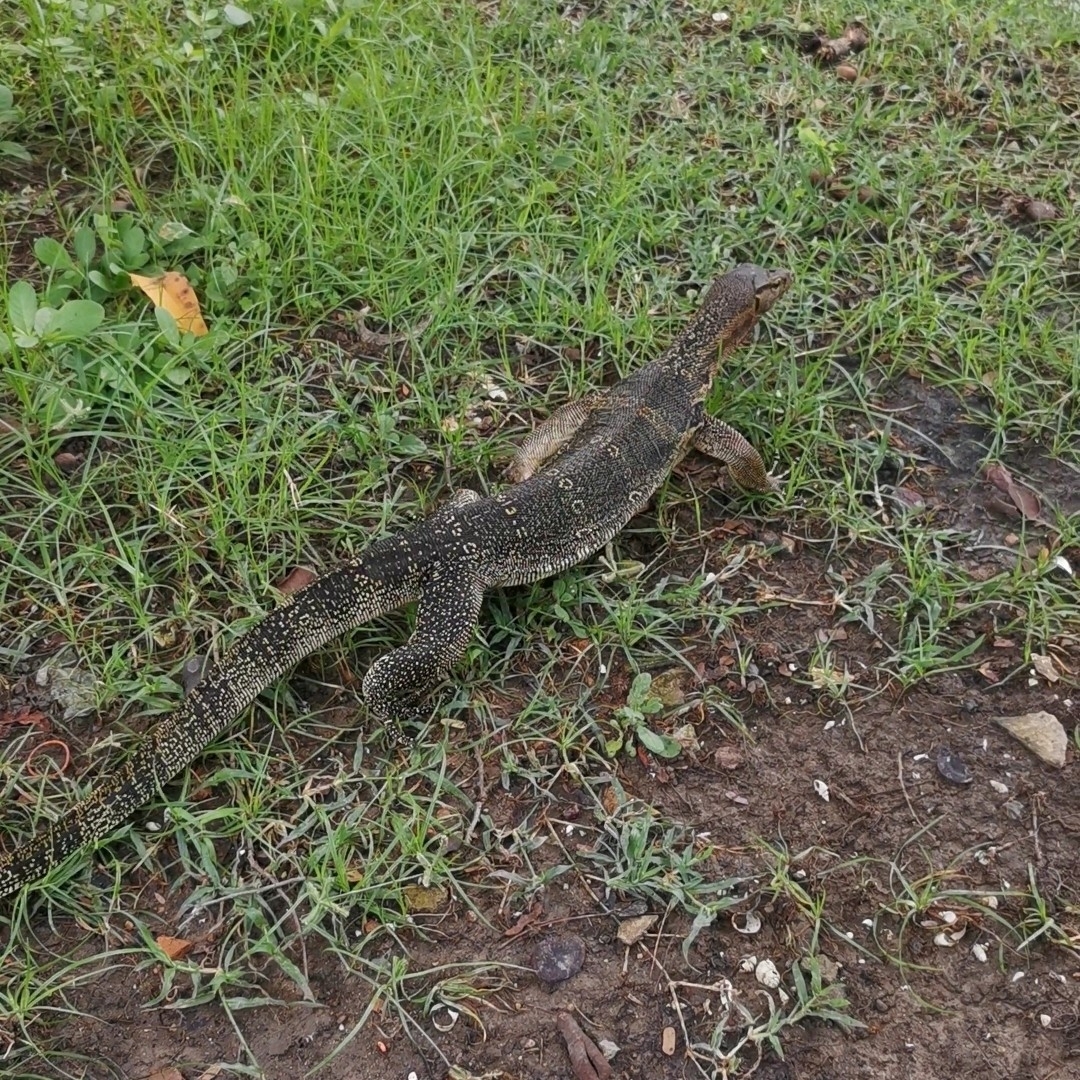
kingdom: Animalia
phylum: Chordata
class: Squamata
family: Varanidae
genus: Varanus
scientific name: Varanus salvator
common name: Common water monitor
